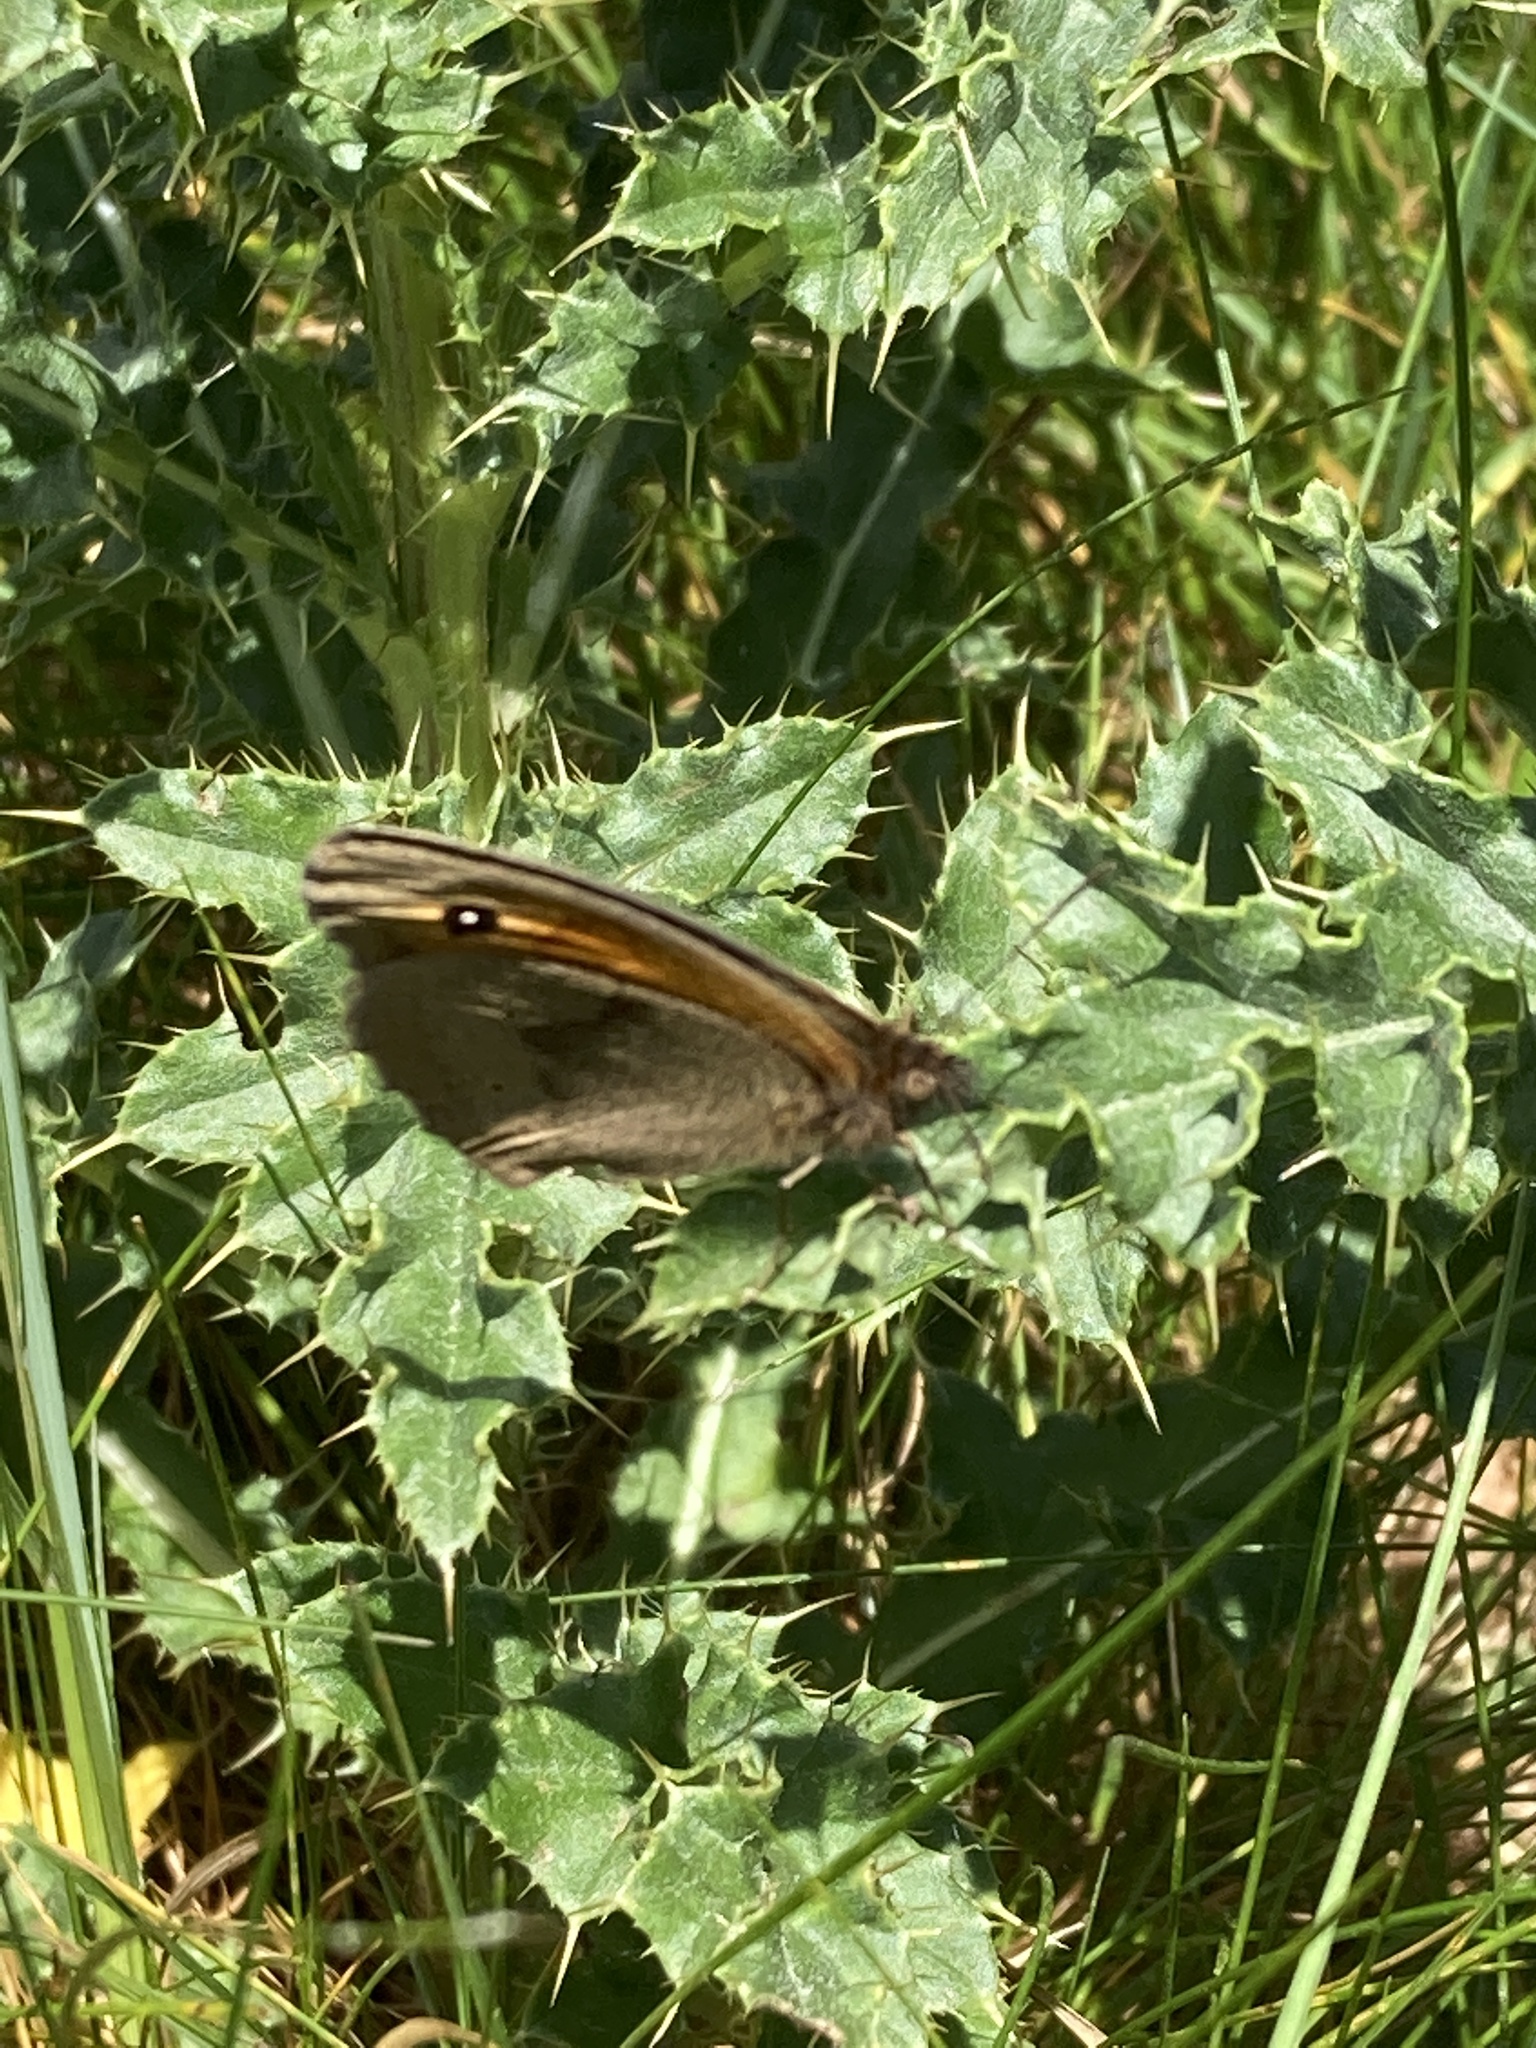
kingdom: Animalia
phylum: Arthropoda
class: Insecta
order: Lepidoptera
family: Nymphalidae
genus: Maniola
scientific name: Maniola jurtina
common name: Meadow brown
